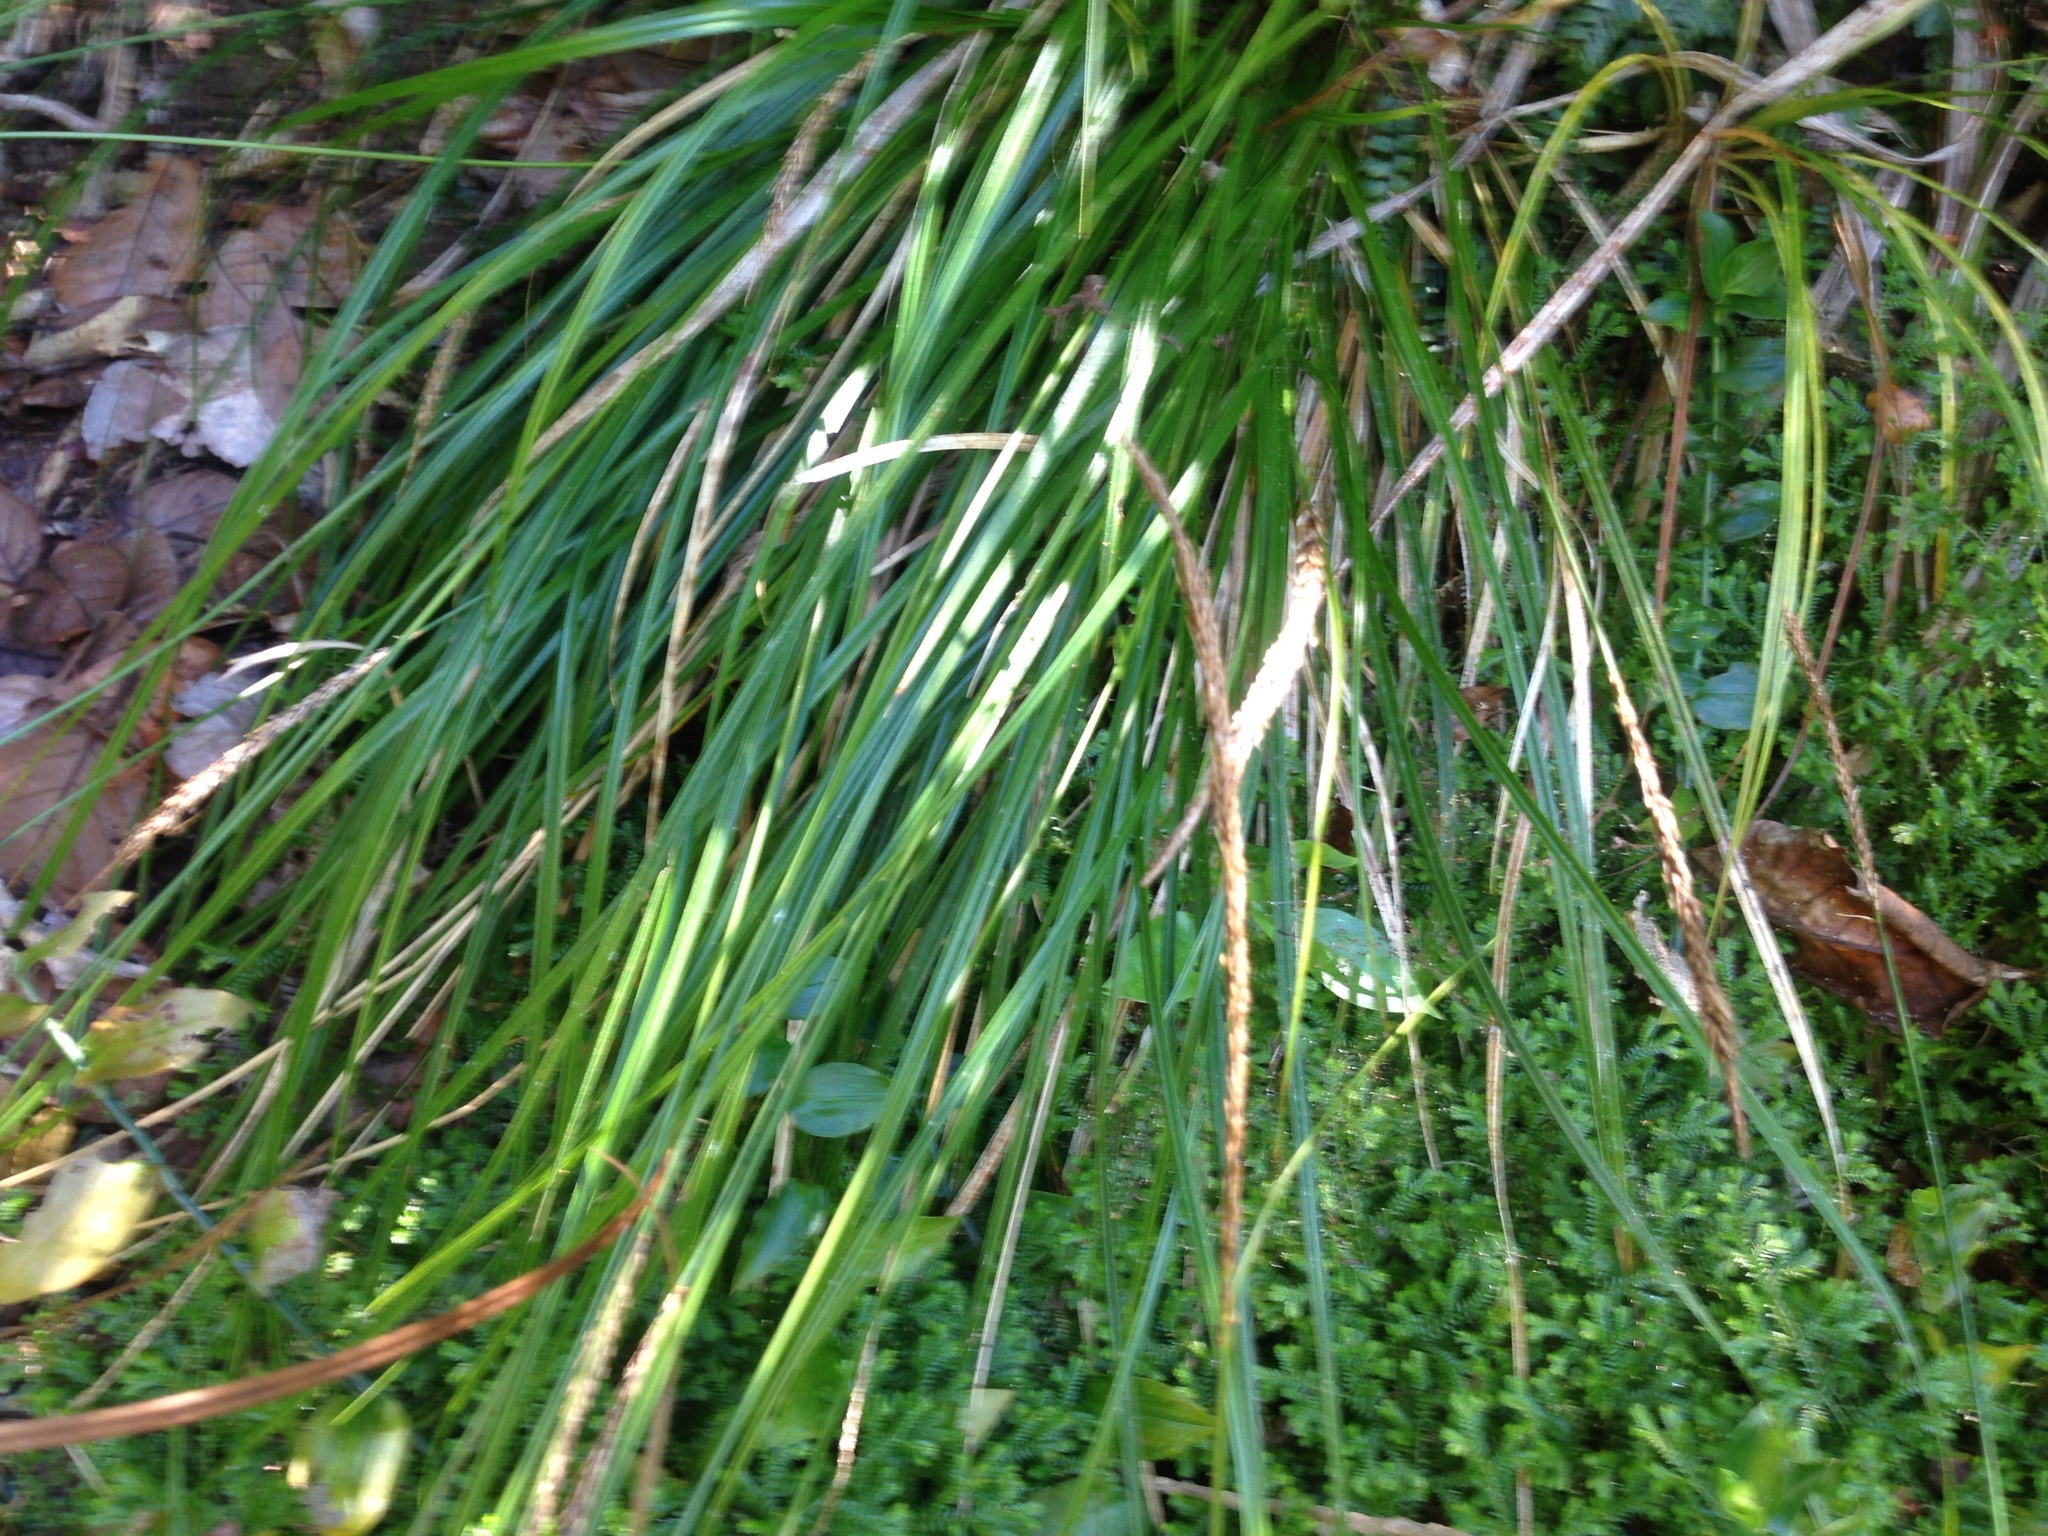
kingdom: Plantae
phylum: Tracheophyta
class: Liliopsida
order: Poales
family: Cyperaceae
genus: Carex
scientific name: Carex uncinata
